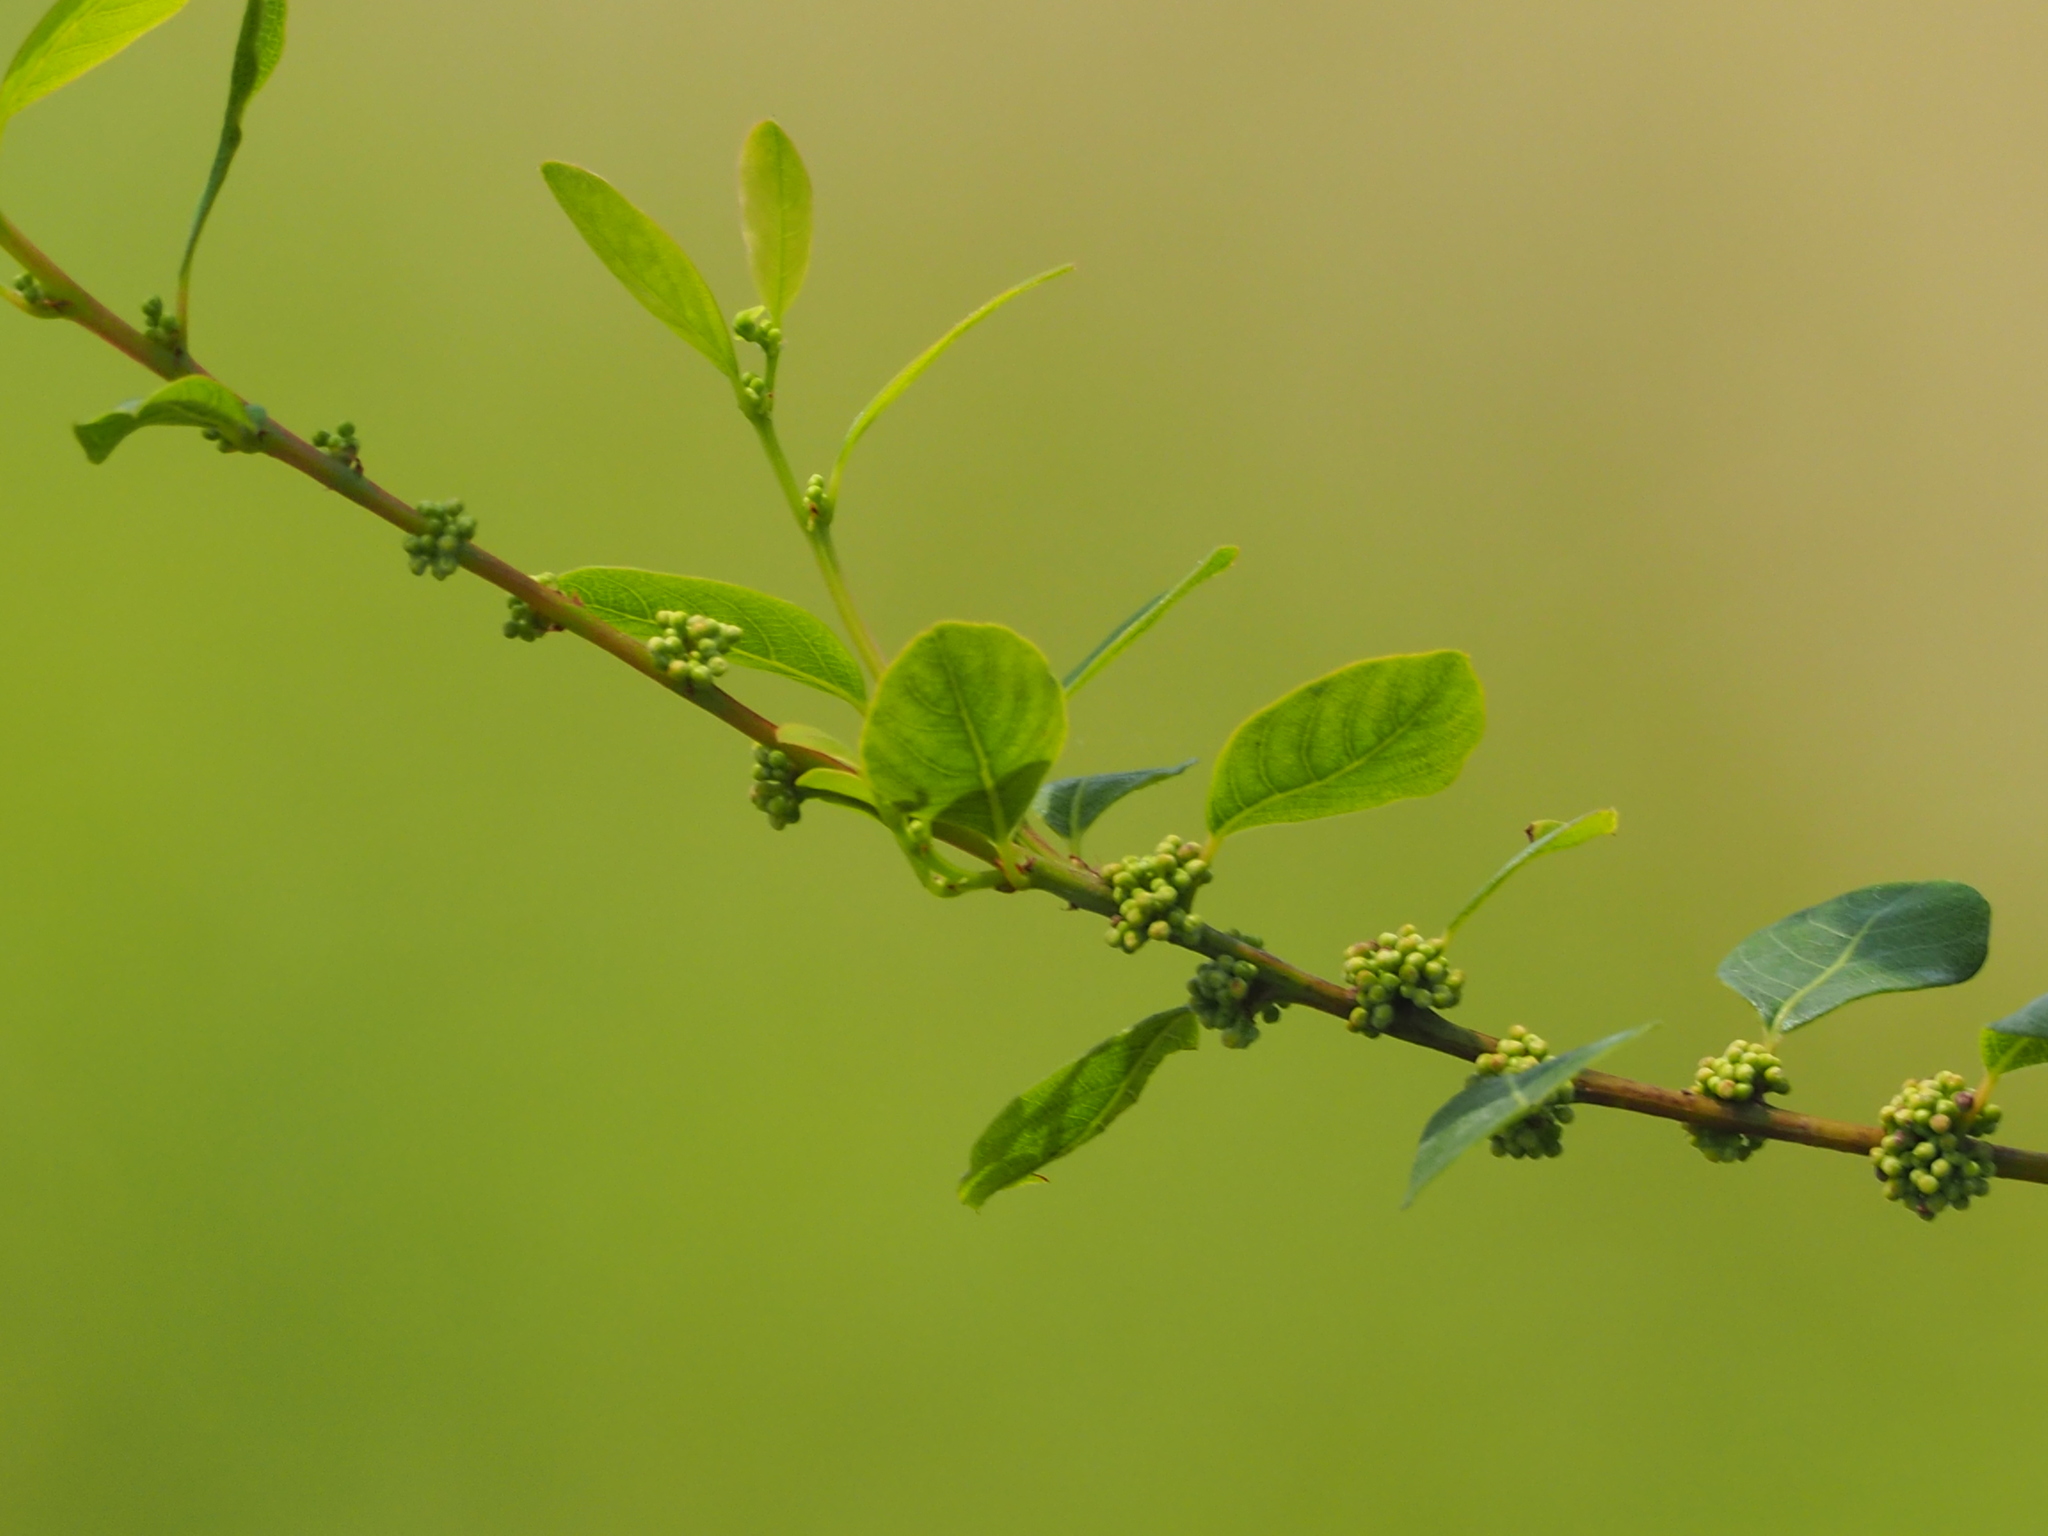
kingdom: Plantae
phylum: Tracheophyta
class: Magnoliopsida
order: Malpighiales
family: Phyllanthaceae
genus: Flueggea
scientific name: Flueggea virosa
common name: Common bushweed
